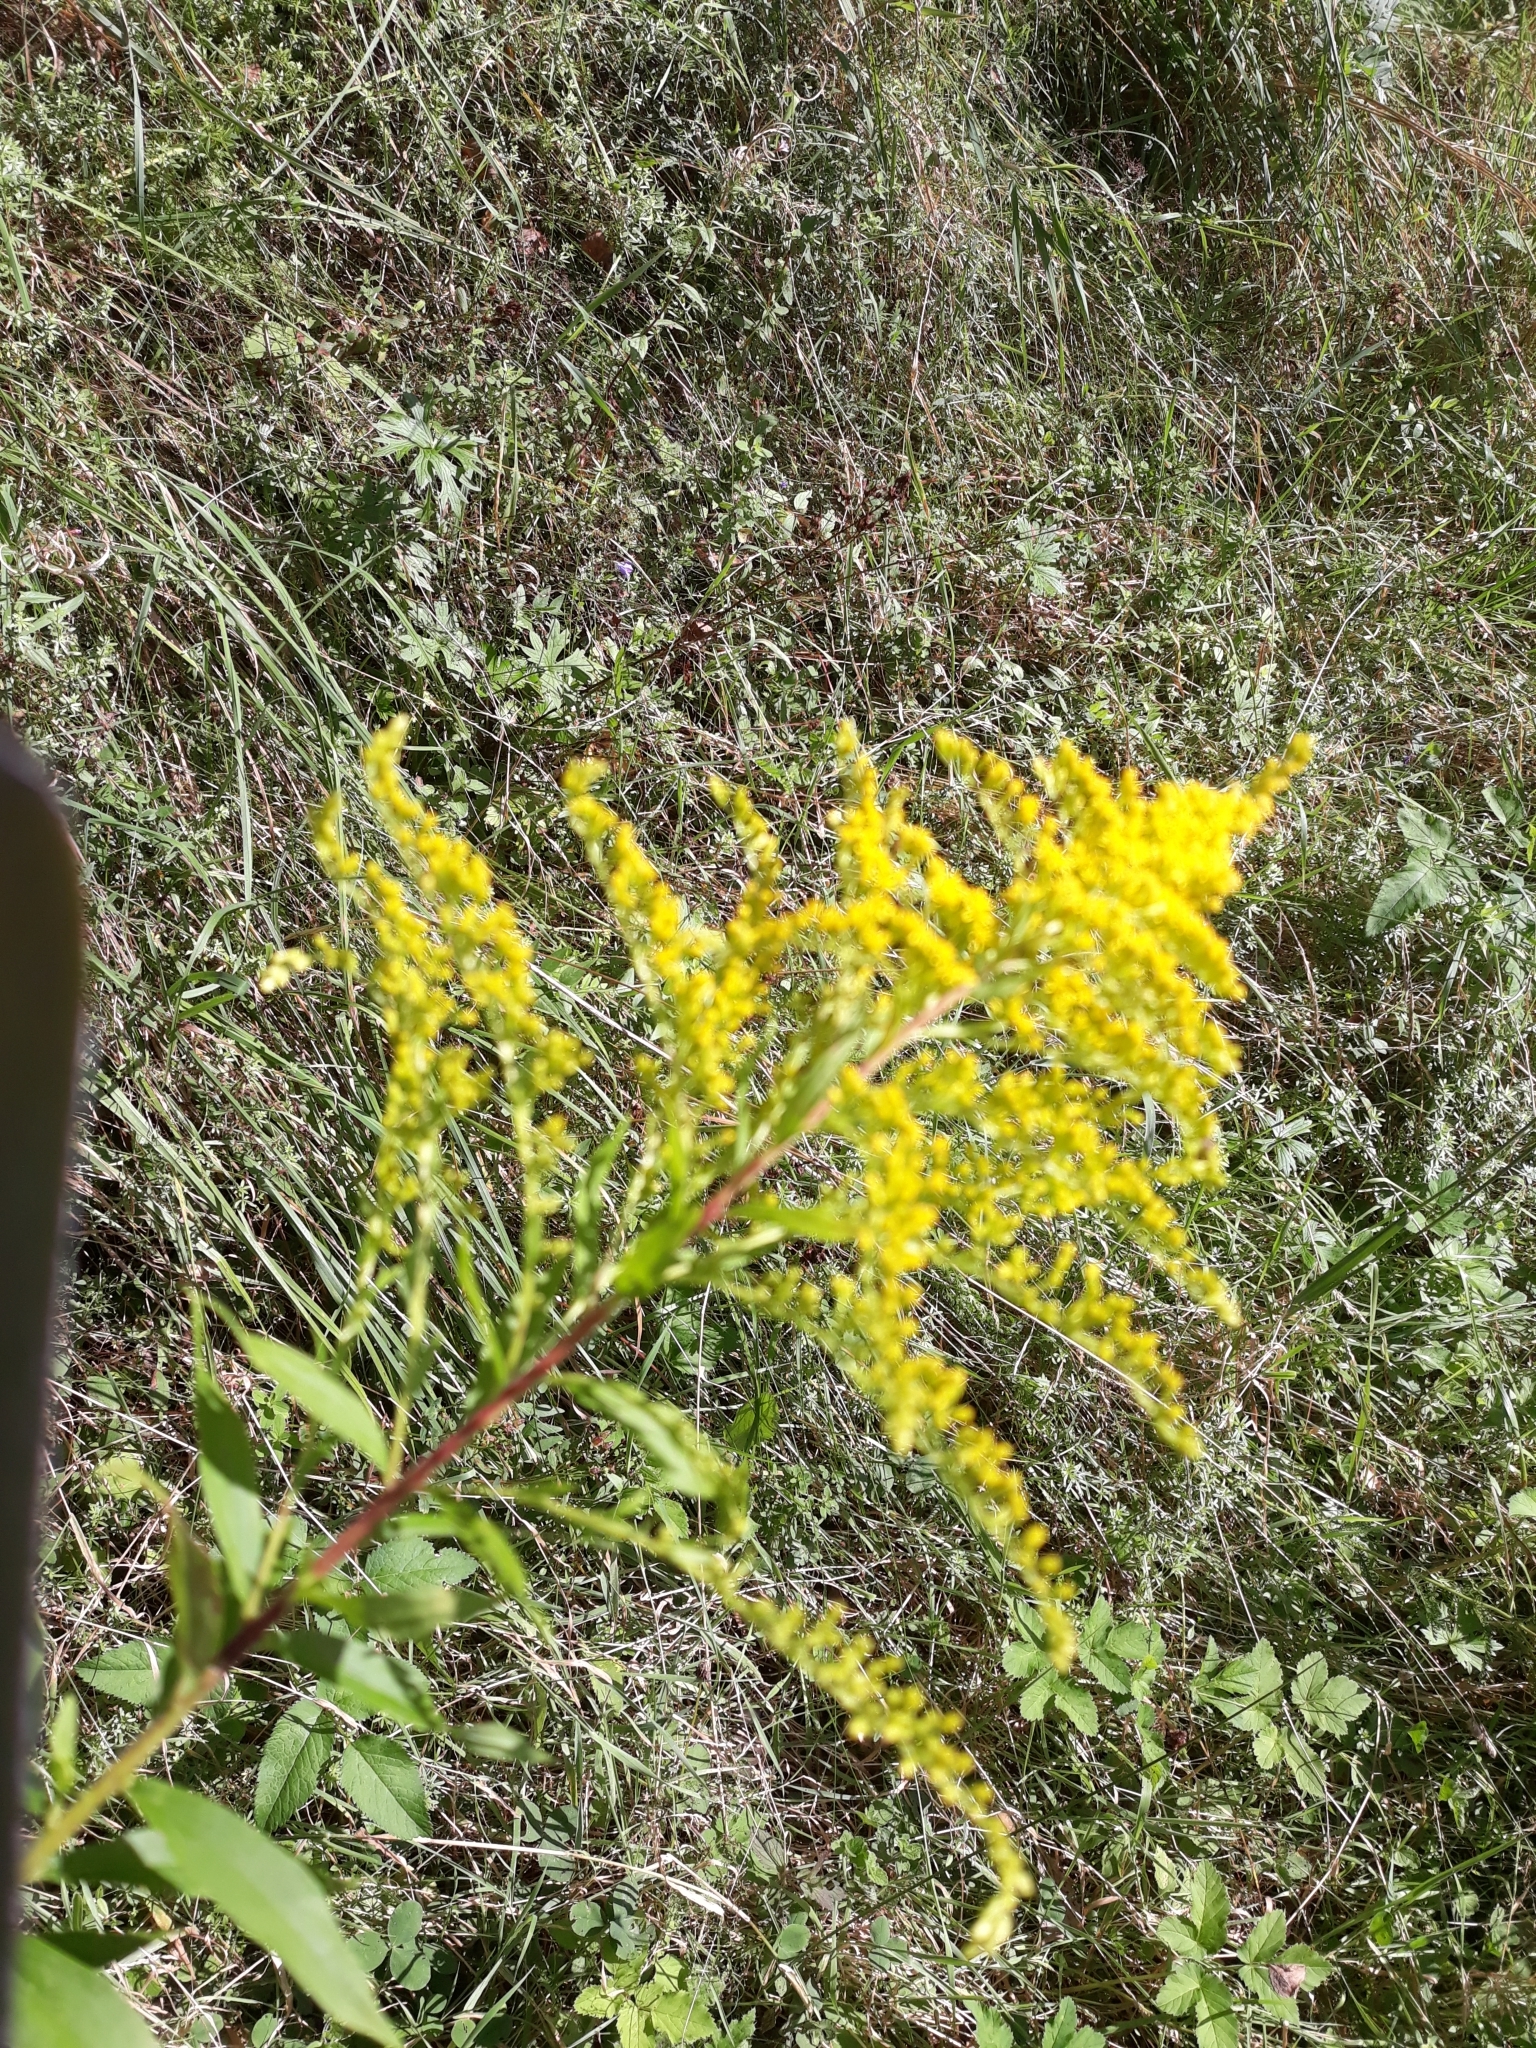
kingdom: Plantae
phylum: Tracheophyta
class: Magnoliopsida
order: Asterales
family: Asteraceae
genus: Solidago
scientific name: Solidago canadensis
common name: Canada goldenrod
